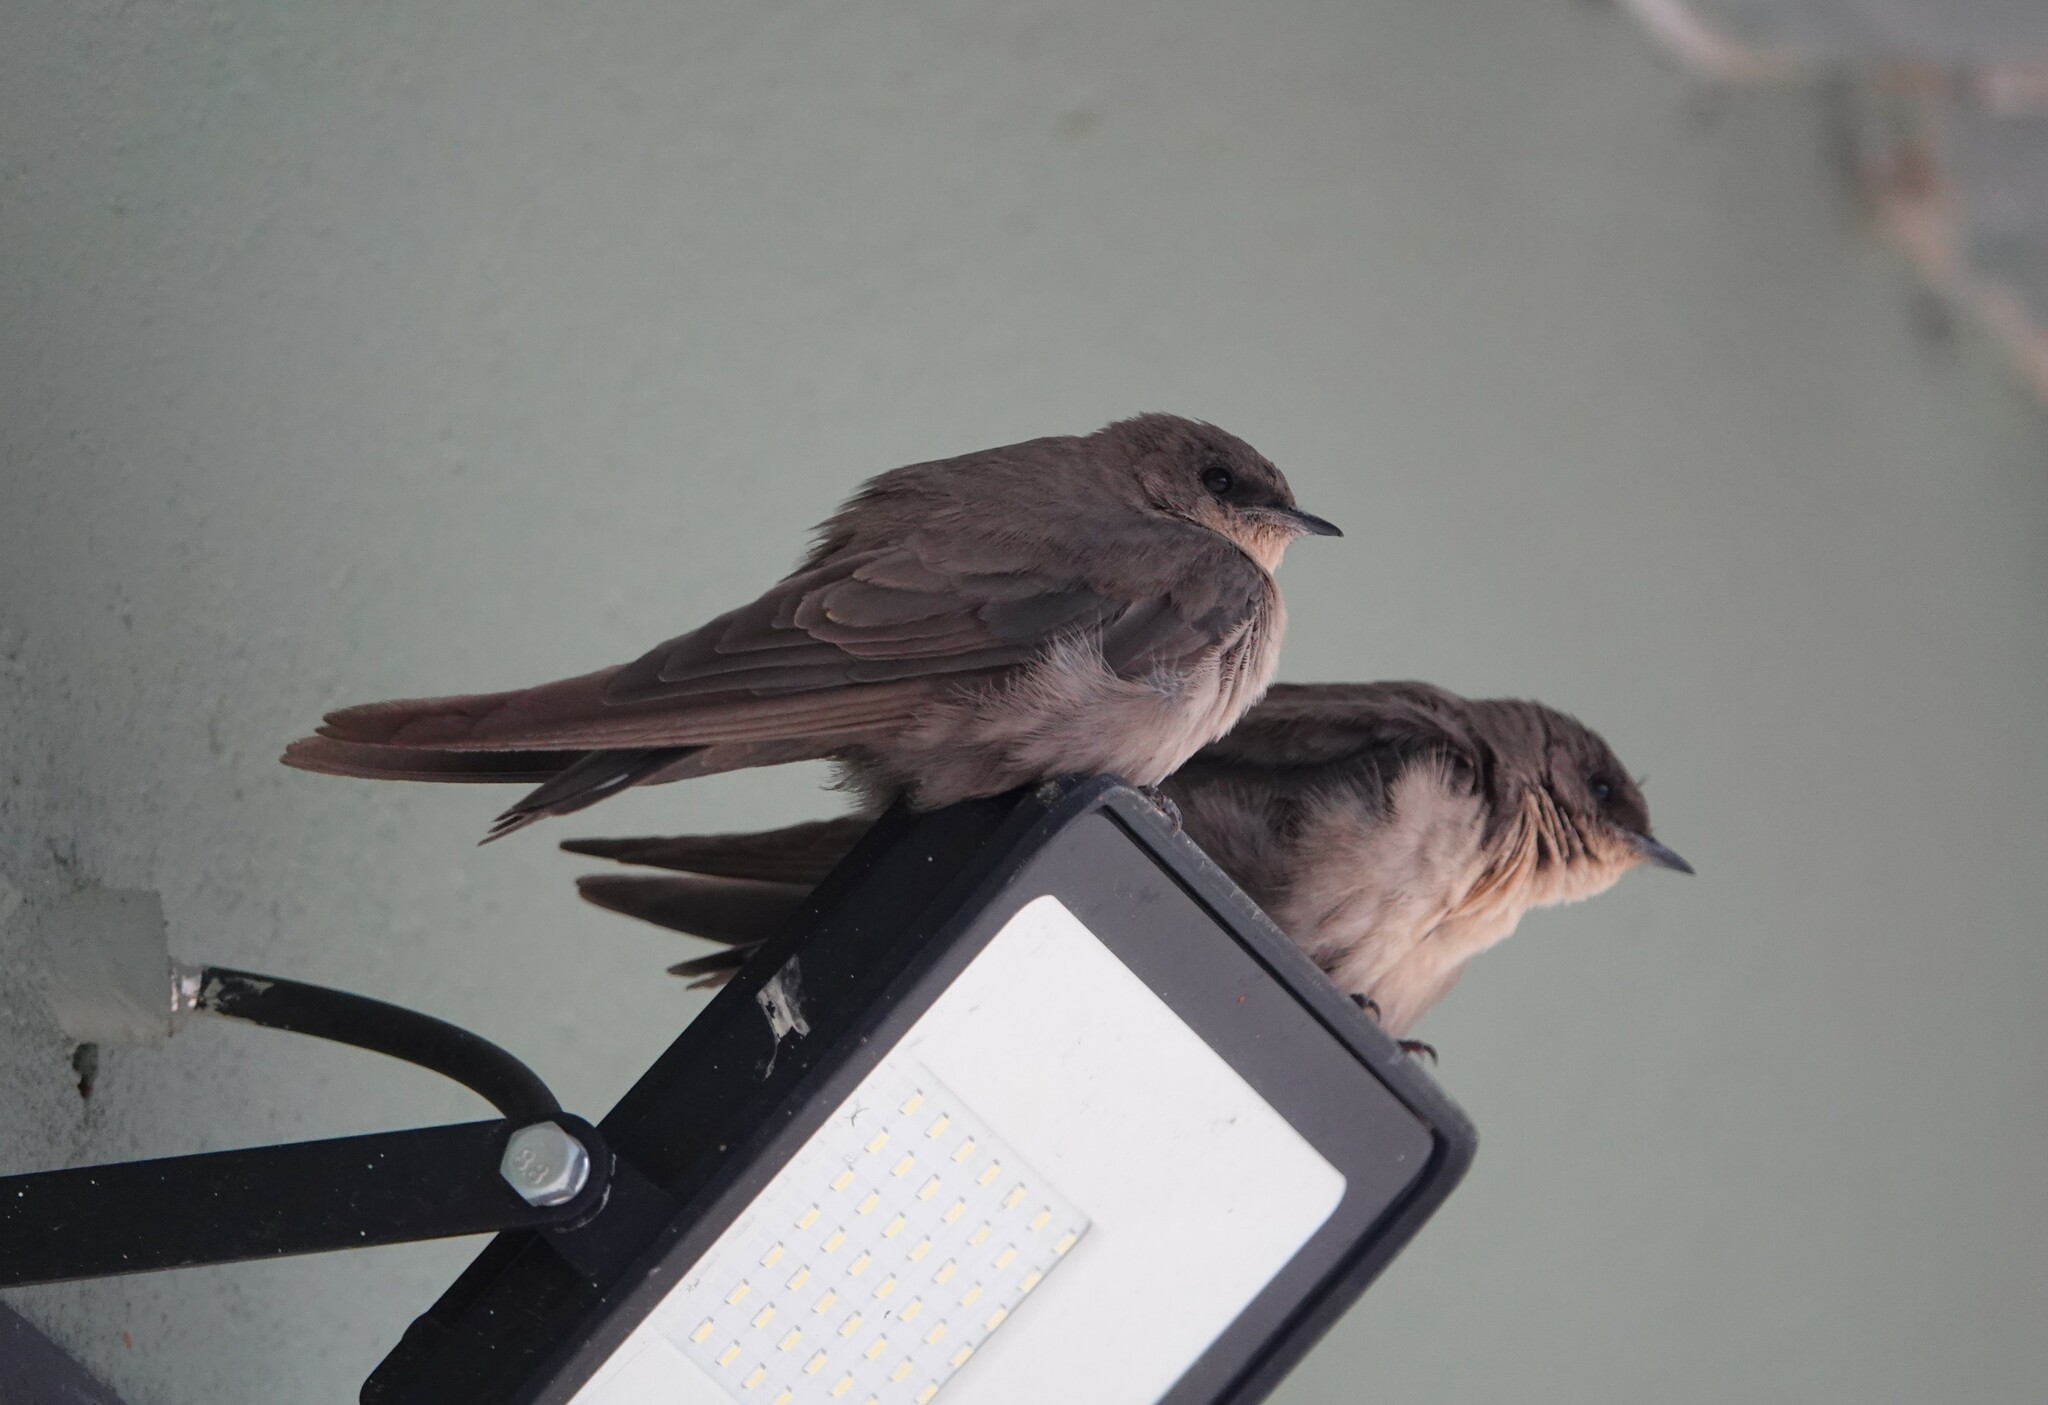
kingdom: Animalia
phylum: Chordata
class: Aves
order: Passeriformes
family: Hirundinidae
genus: Ptyonoprogne
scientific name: Ptyonoprogne fuligula
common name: Rock martin
